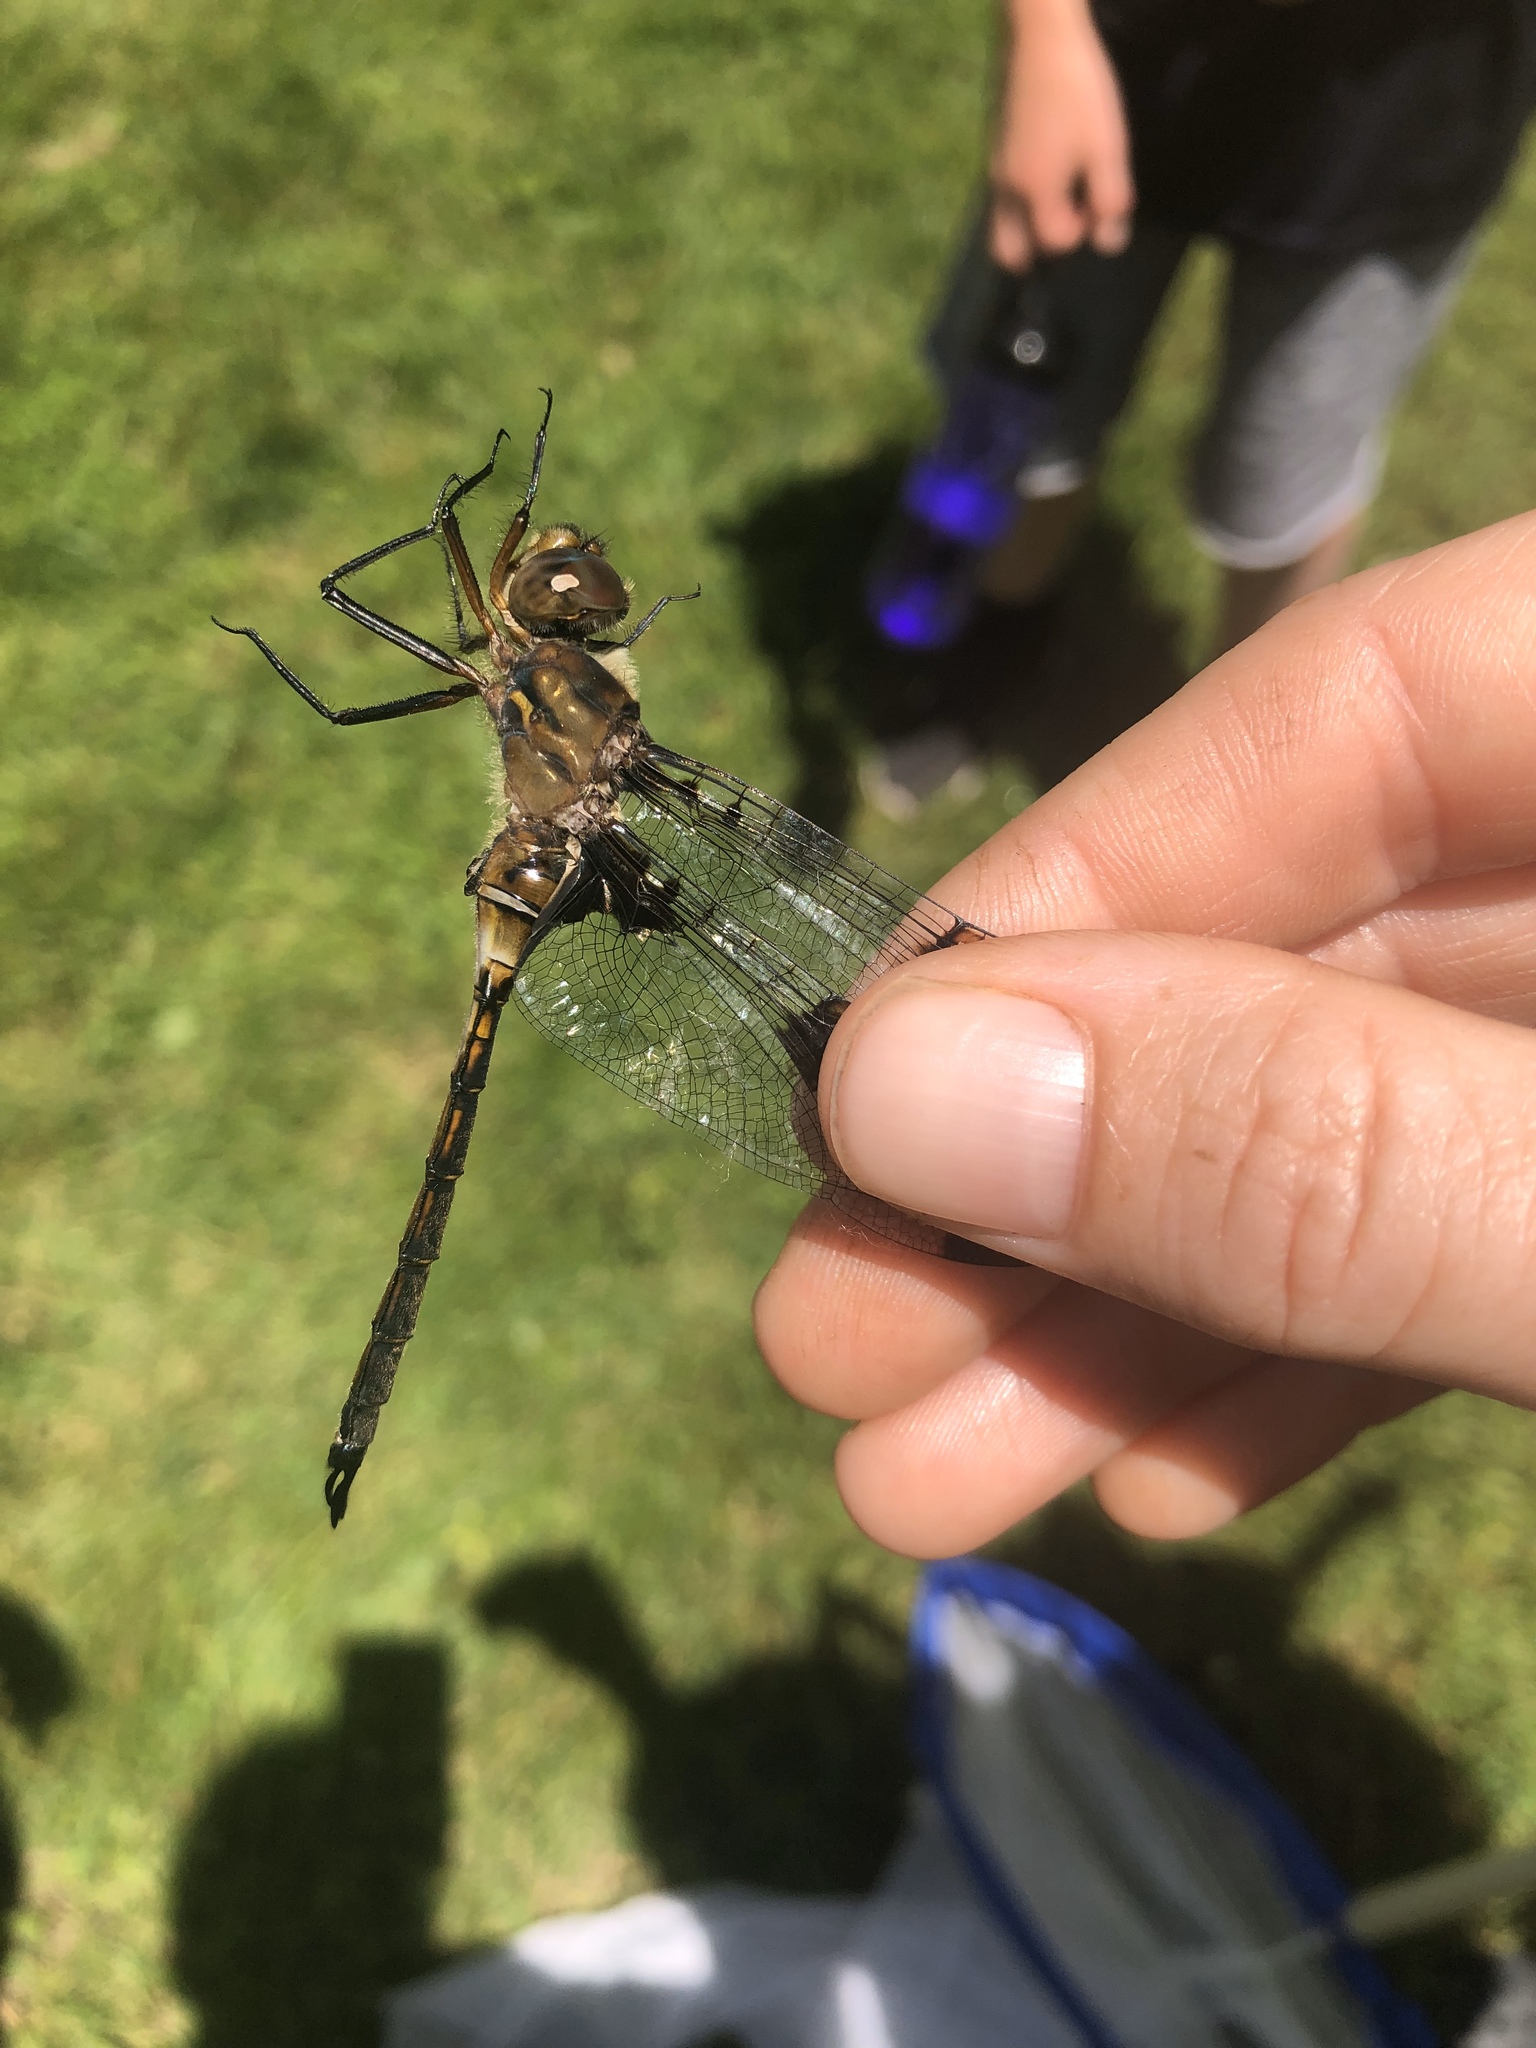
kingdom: Animalia
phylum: Arthropoda
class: Insecta
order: Odonata
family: Corduliidae
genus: Epitheca
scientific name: Epitheca princeps
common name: Prince baskettail
